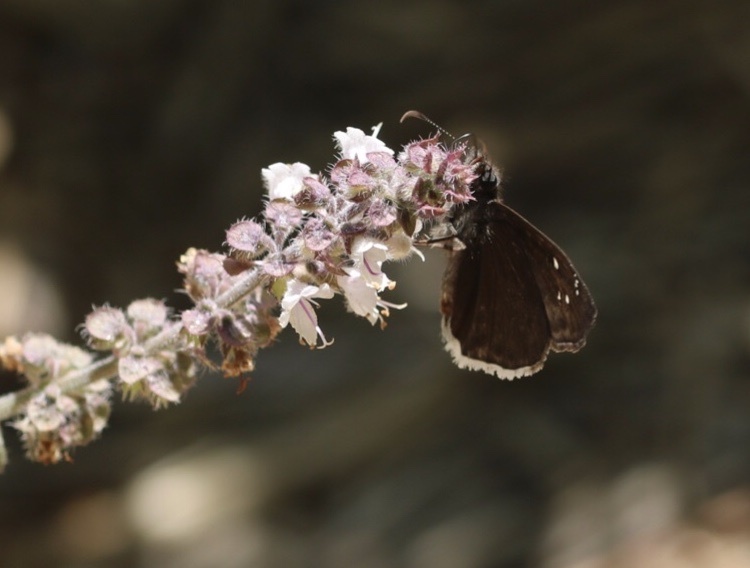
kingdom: Animalia
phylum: Arthropoda
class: Insecta
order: Lepidoptera
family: Hesperiidae
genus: Erynnis
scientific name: Erynnis tristis
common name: Mournful duskywing
